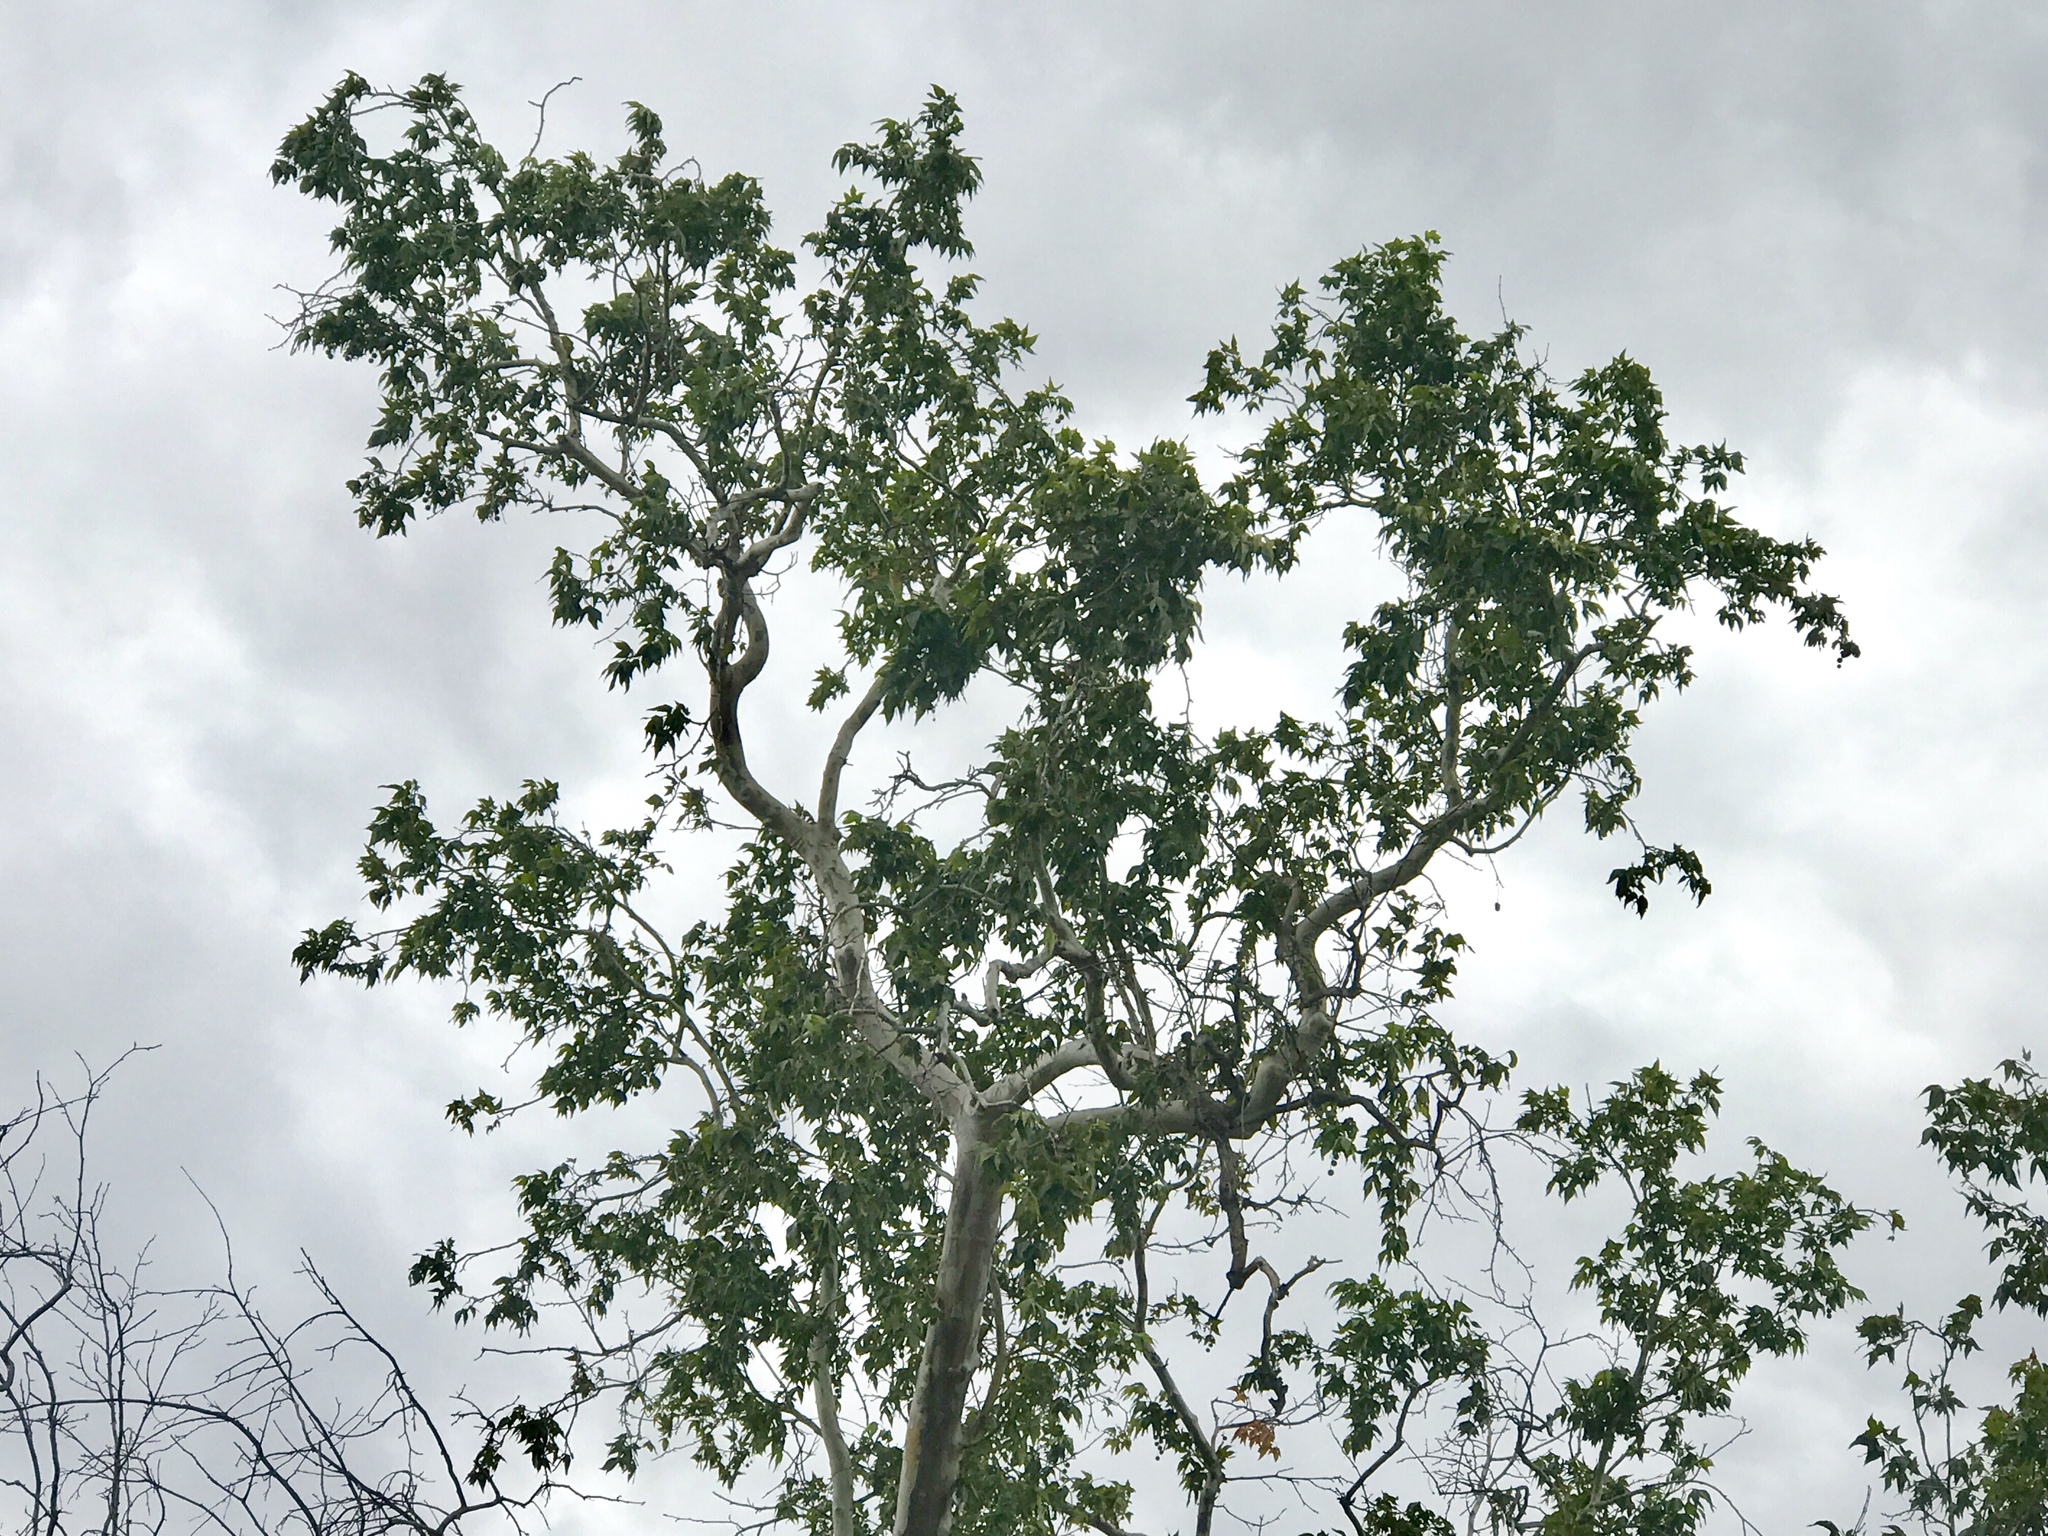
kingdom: Plantae
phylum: Tracheophyta
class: Magnoliopsida
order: Proteales
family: Platanaceae
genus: Platanus
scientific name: Platanus wrightii
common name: Arizona sycamore
